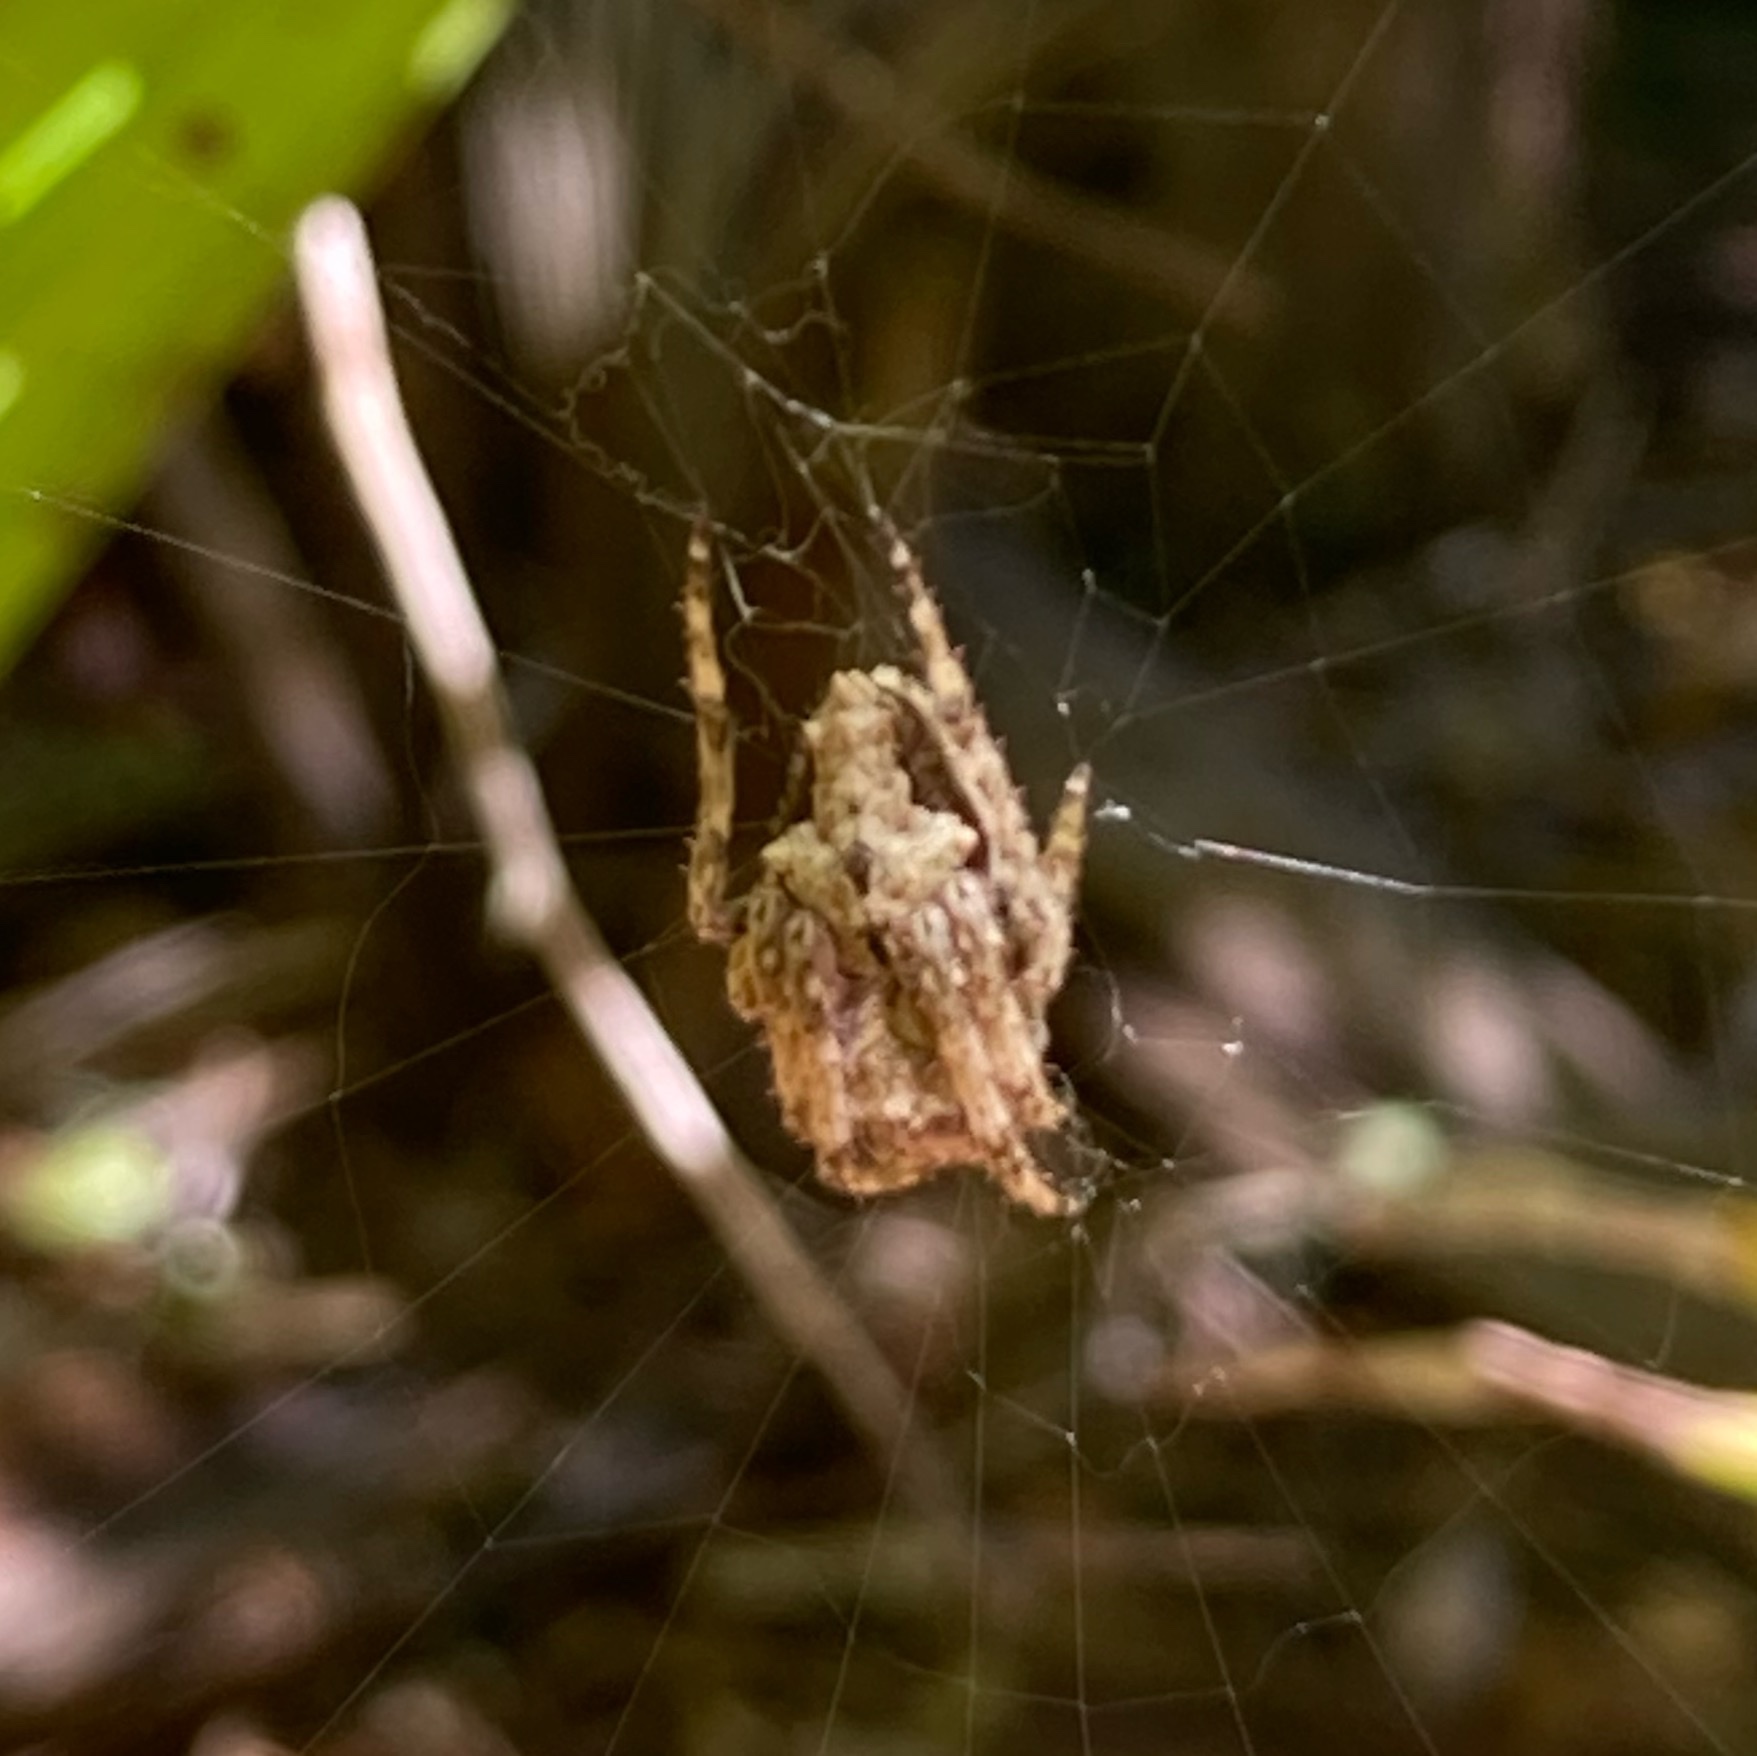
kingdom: Animalia
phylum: Arthropoda
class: Arachnida
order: Araneae
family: Araneidae
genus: Eriophora
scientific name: Eriophora pustulosa
